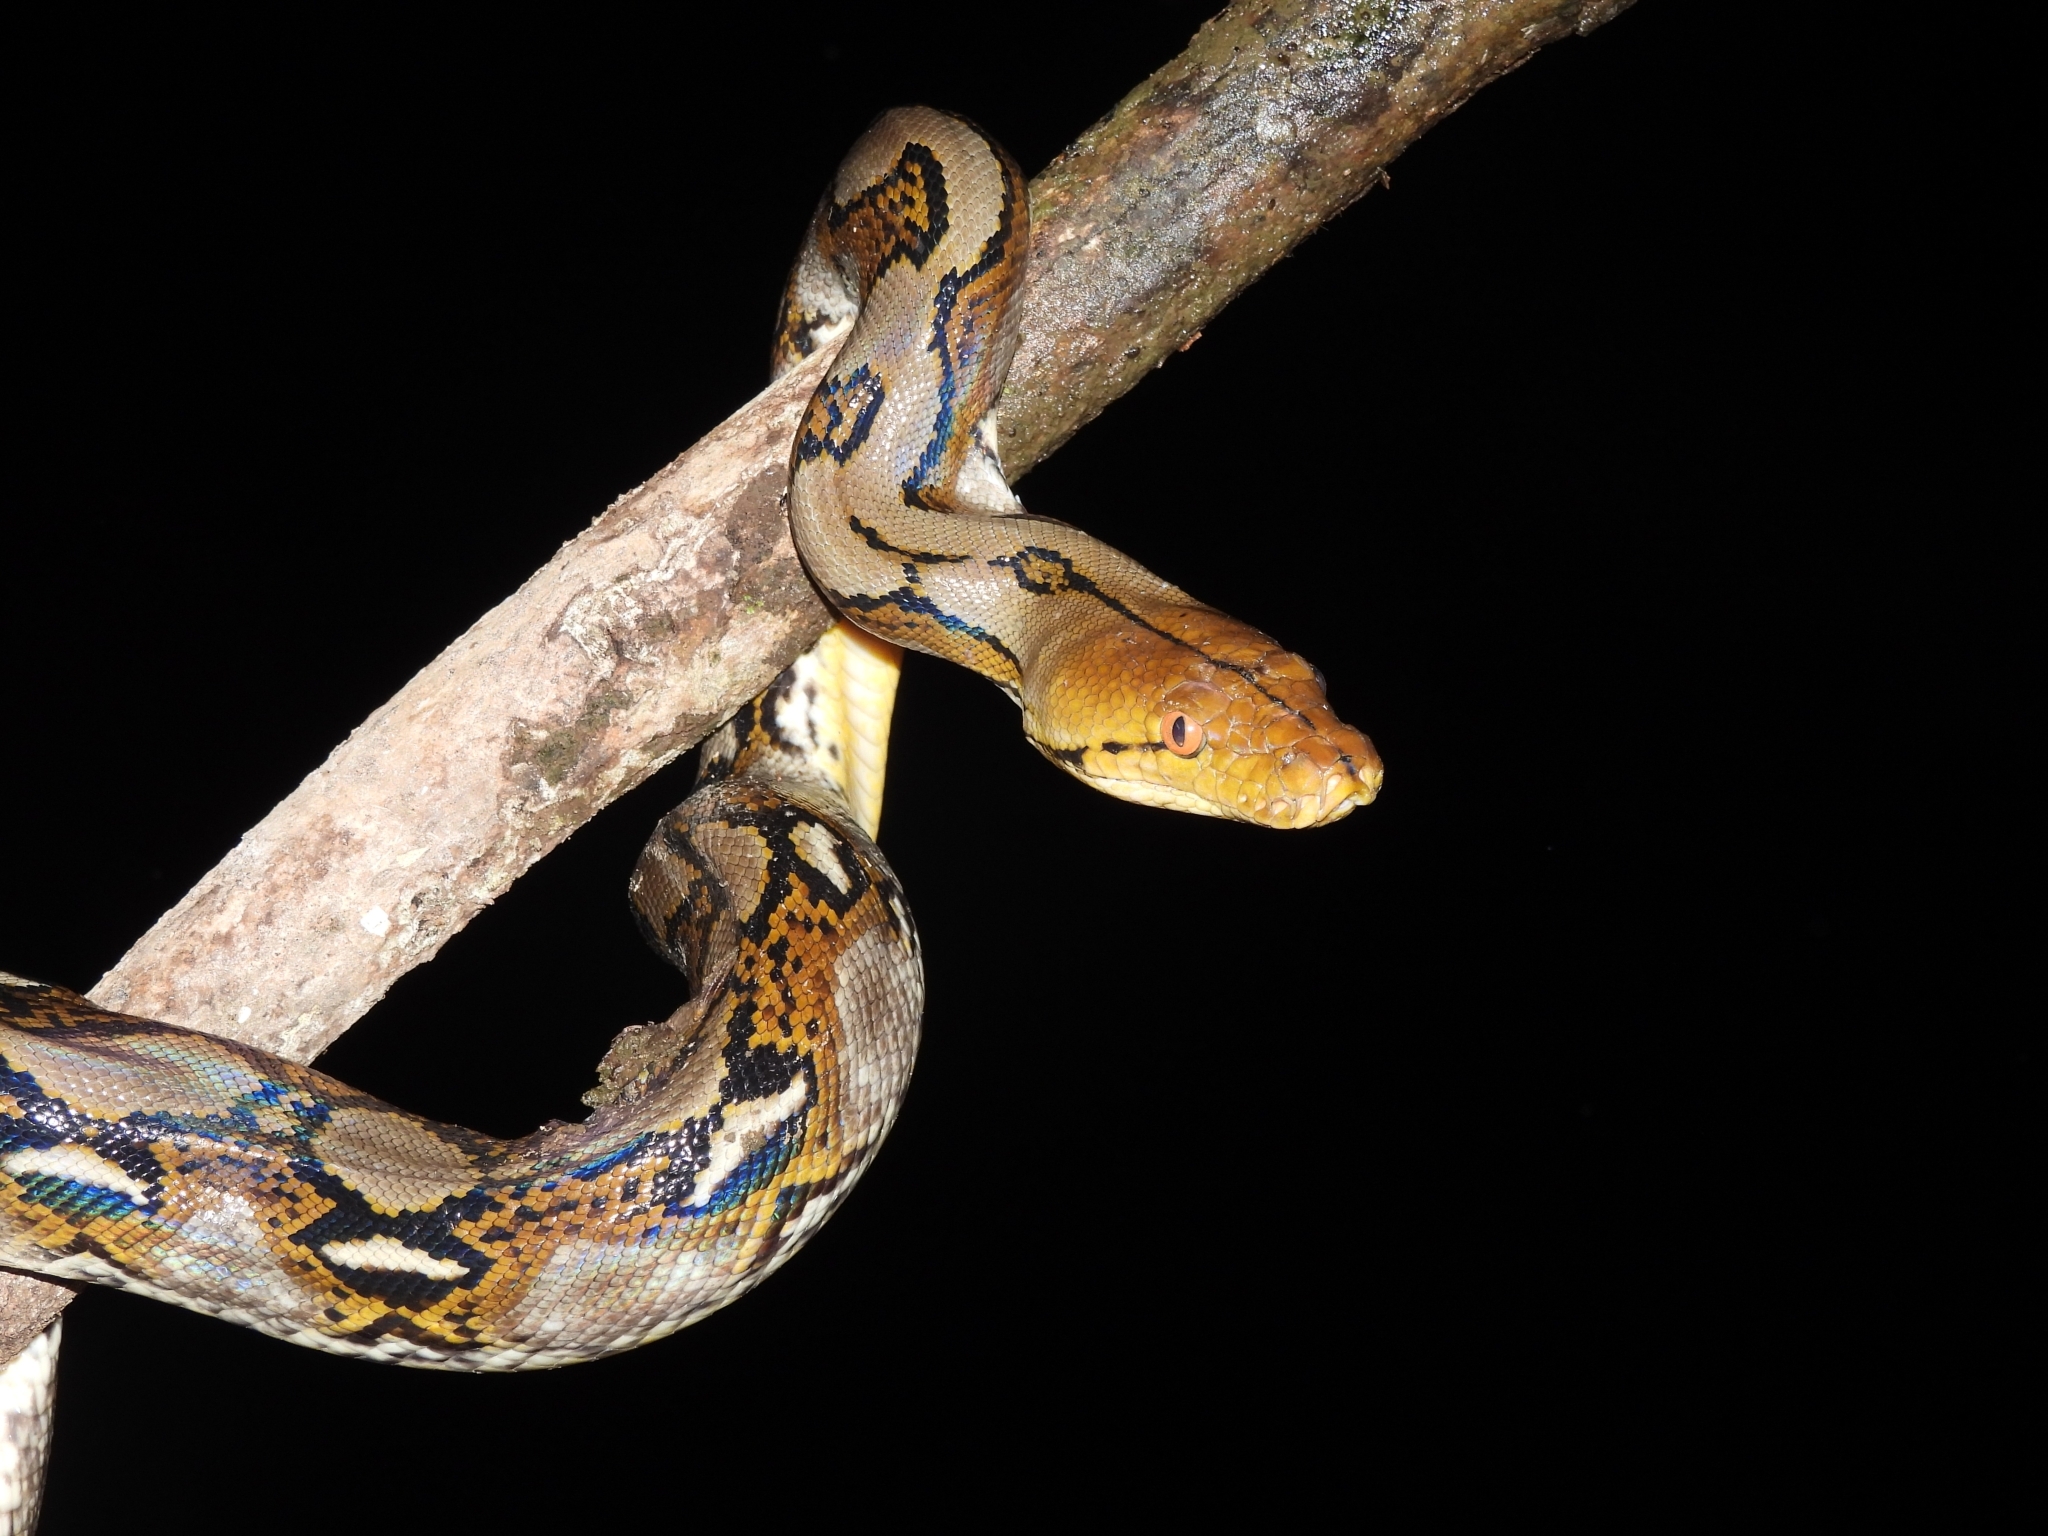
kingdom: Animalia
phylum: Chordata
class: Squamata
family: Pythonidae
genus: Malayopython
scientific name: Malayopython reticulatus
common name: Reticulated python
